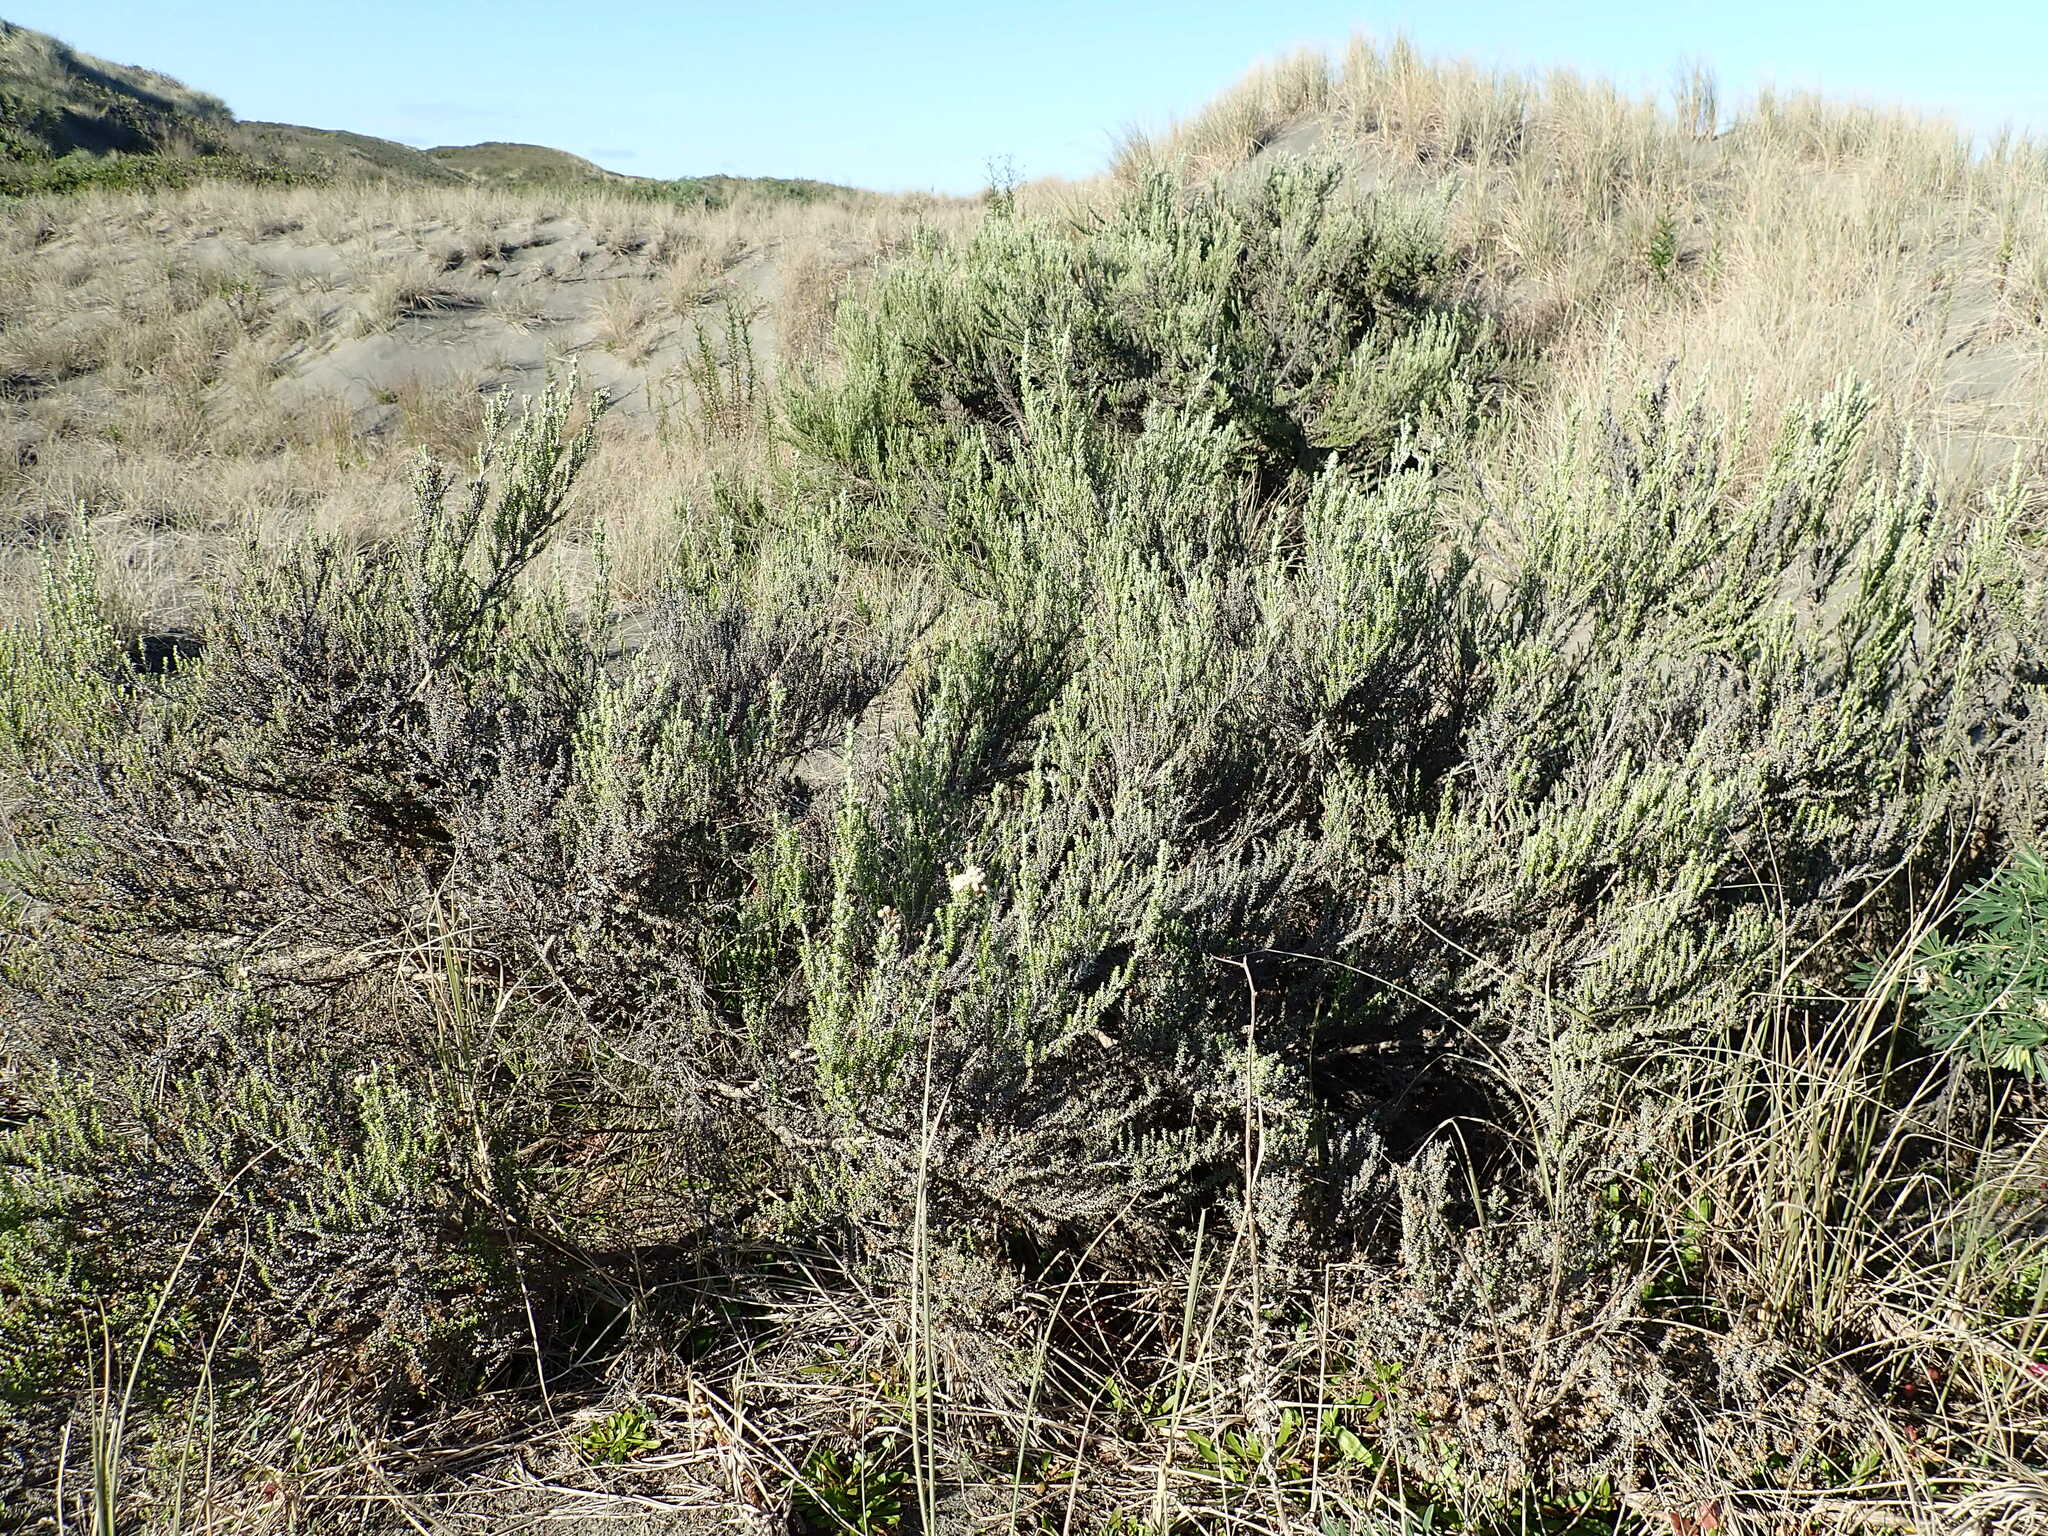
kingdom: Plantae
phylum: Tracheophyta
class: Magnoliopsida
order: Asterales
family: Asteraceae
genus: Ozothamnus
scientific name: Ozothamnus leptophyllus
